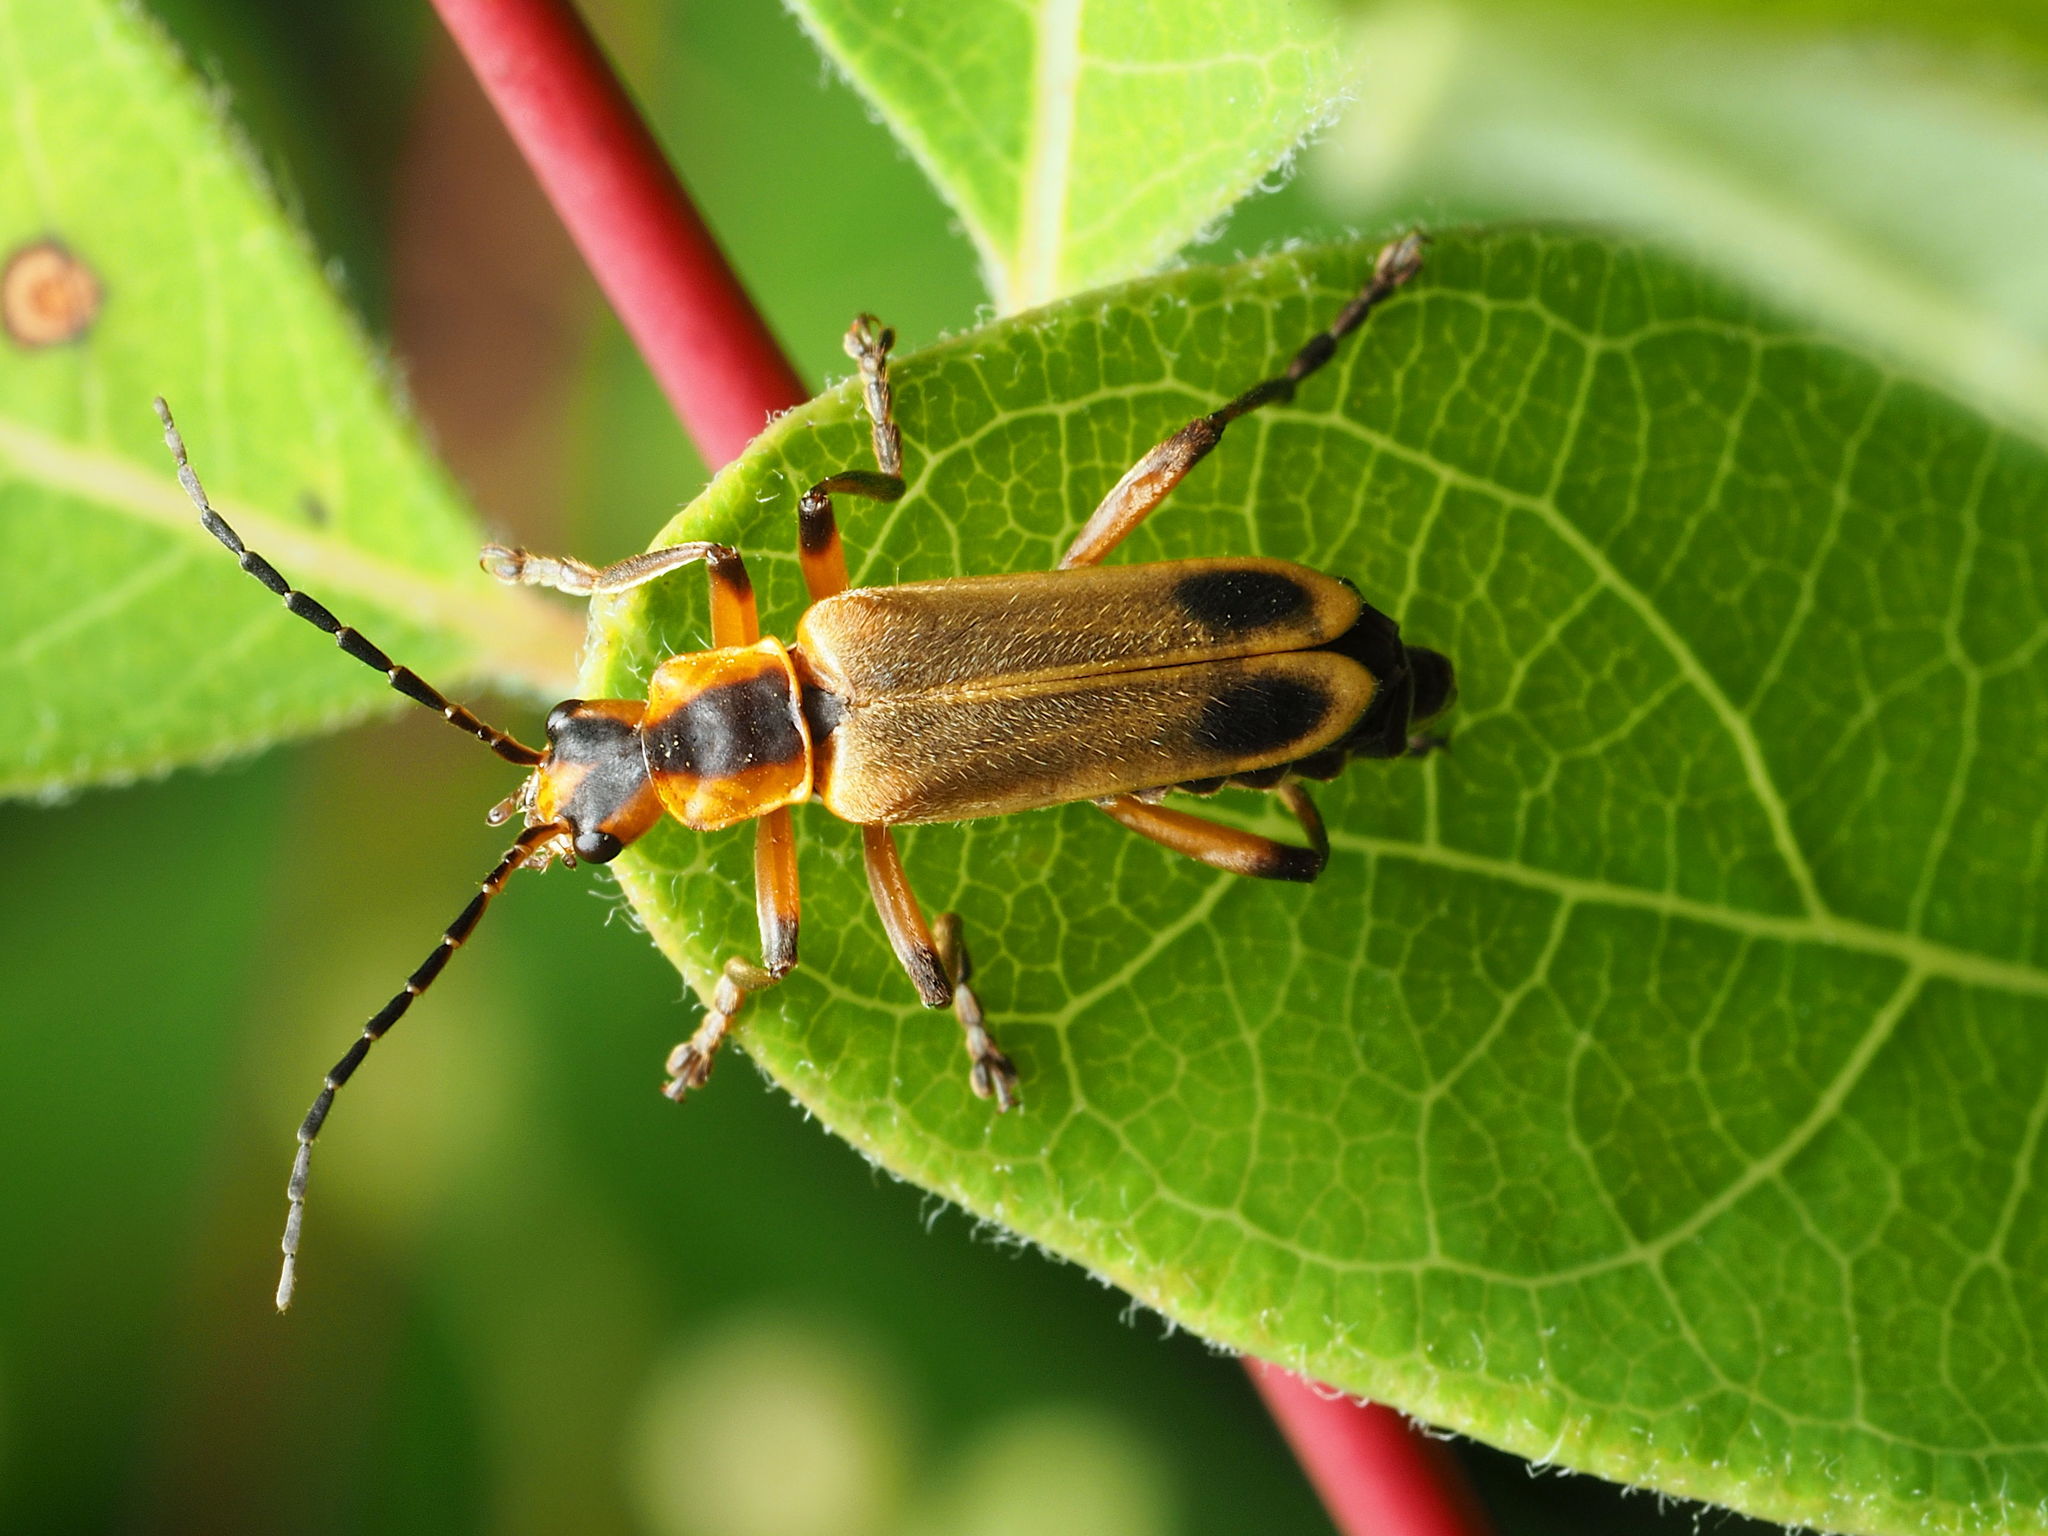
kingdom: Animalia
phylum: Arthropoda
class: Insecta
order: Coleoptera
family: Cantharidae
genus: Chauliognathus
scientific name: Chauliognathus marginatus
